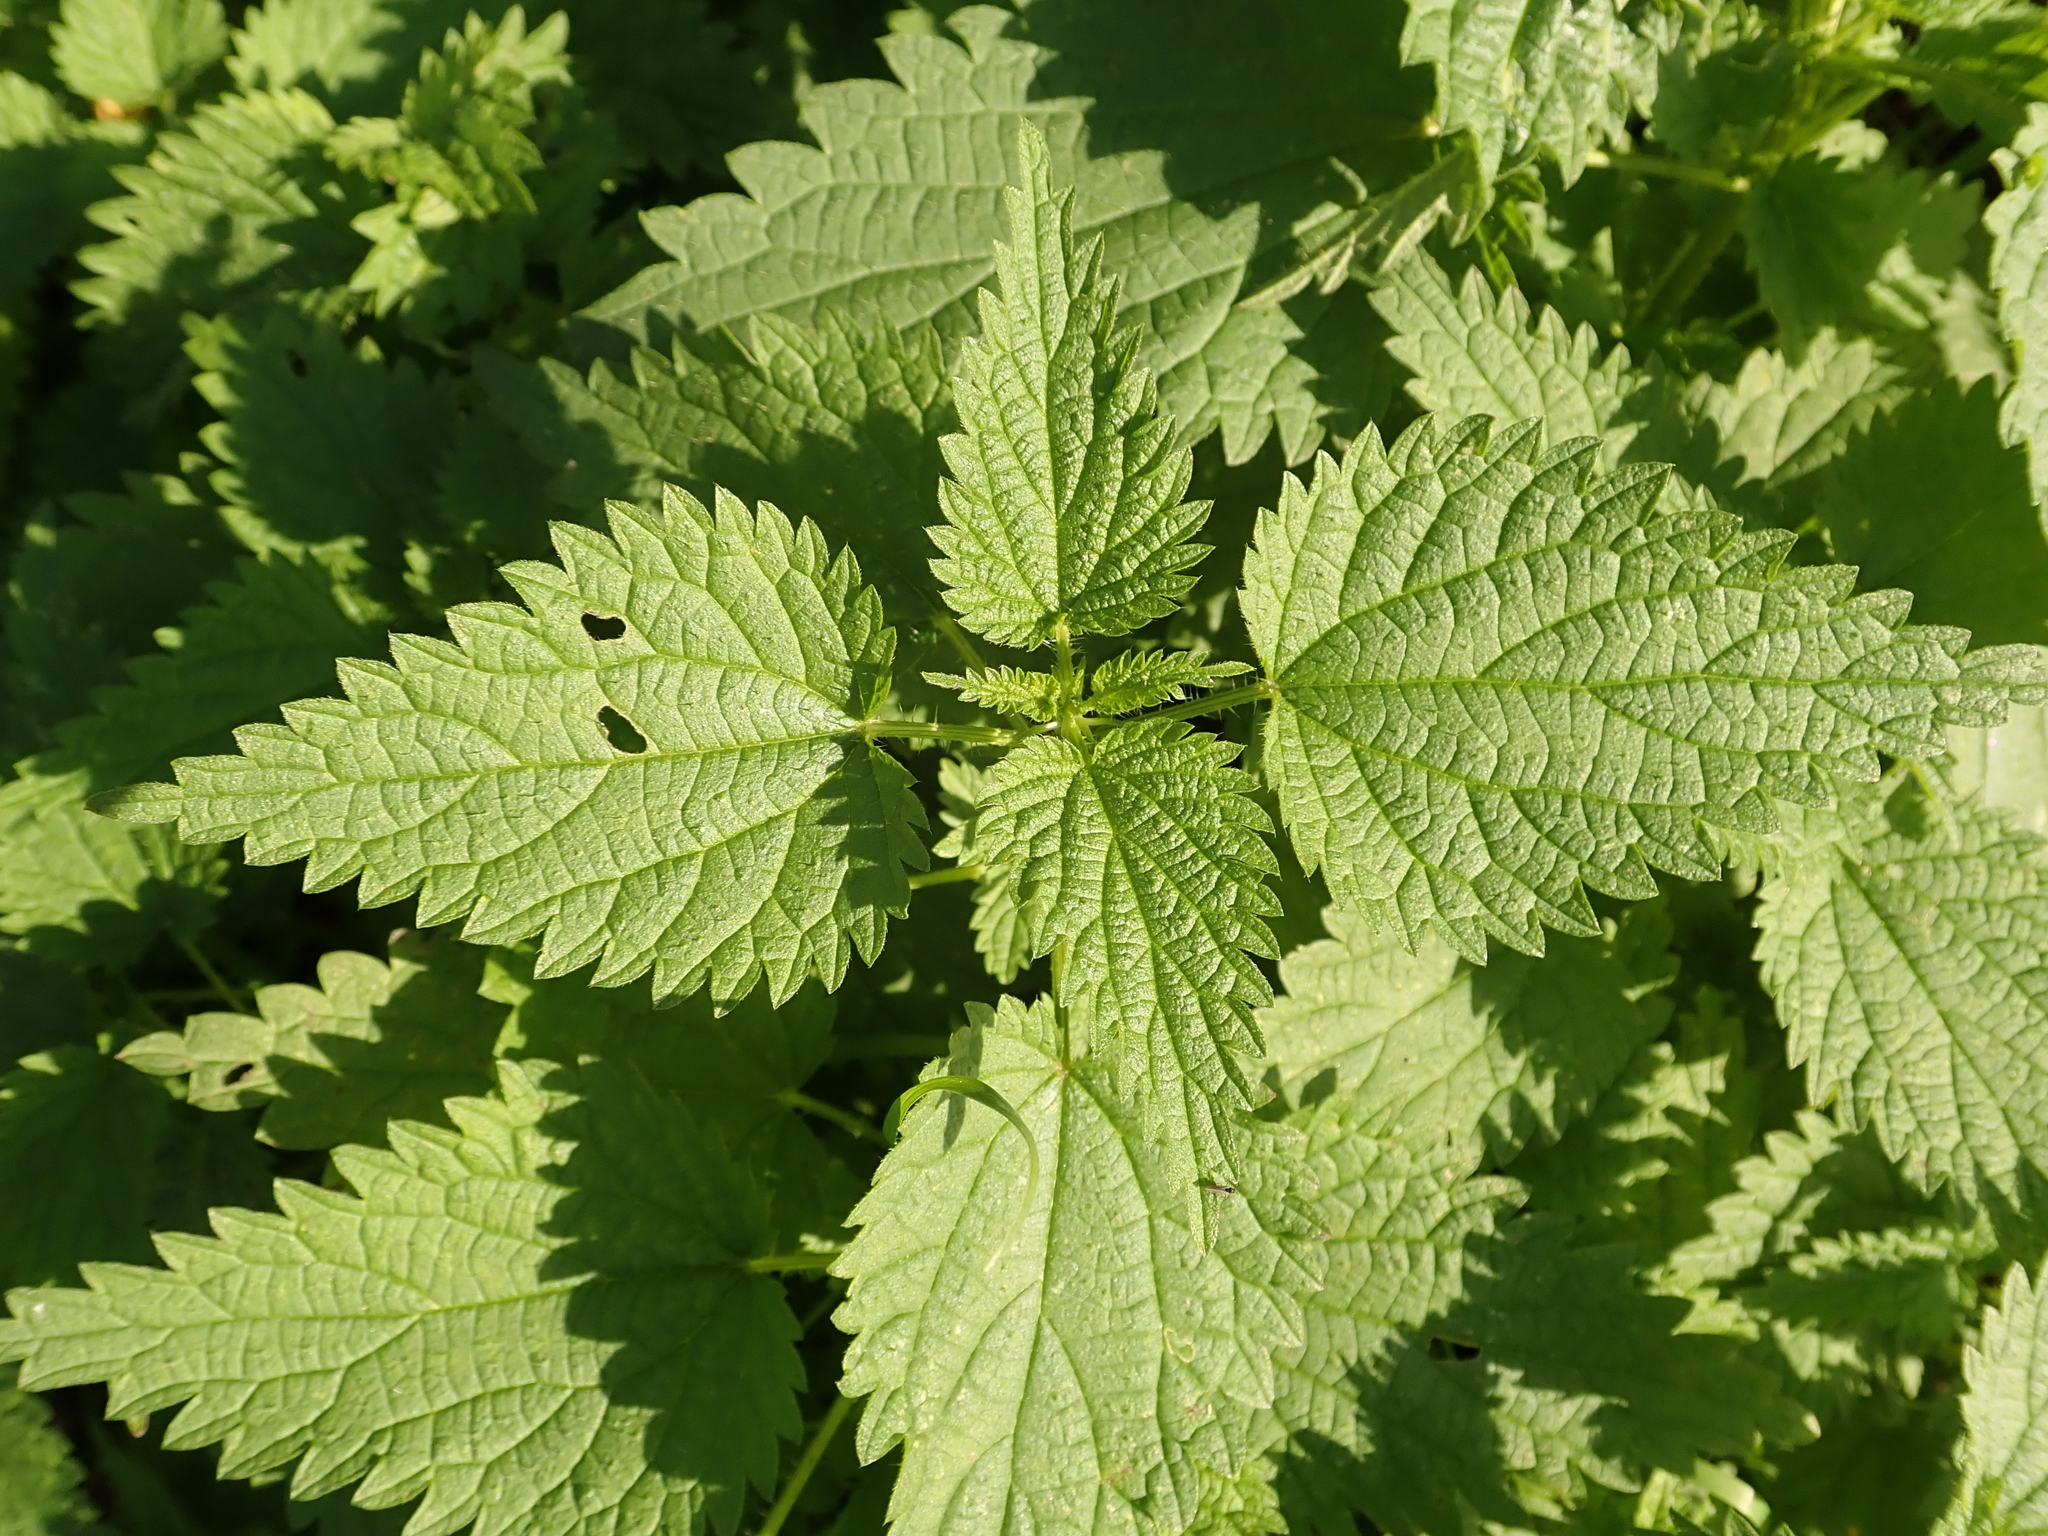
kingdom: Plantae
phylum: Tracheophyta
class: Magnoliopsida
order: Rosales
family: Urticaceae
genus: Urtica
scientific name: Urtica dioica
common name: Common nettle
